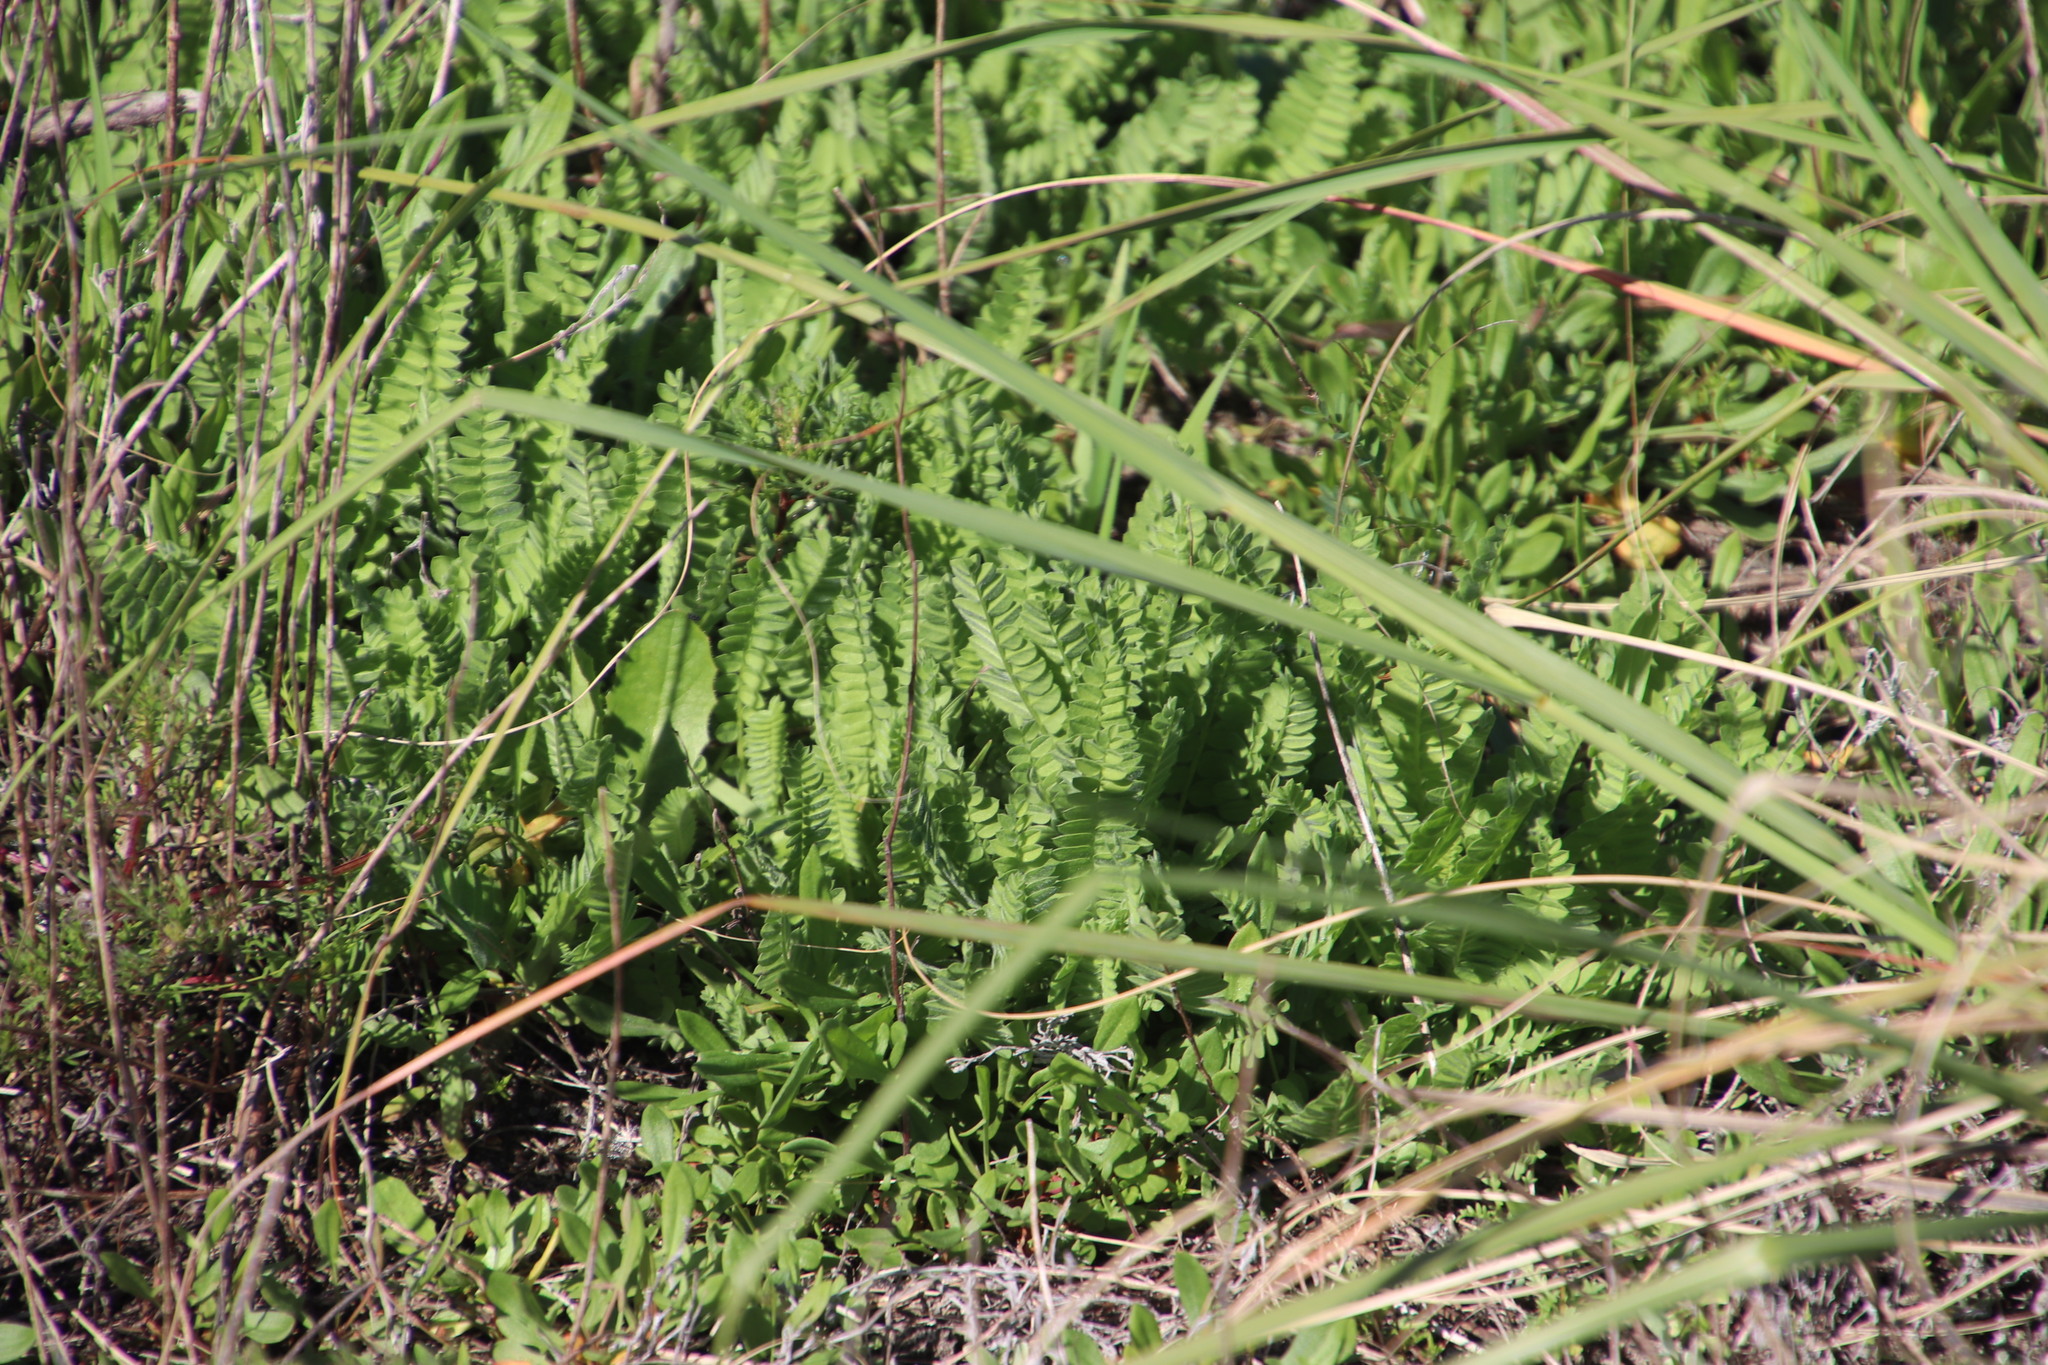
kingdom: Plantae
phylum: Tracheophyta
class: Magnoliopsida
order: Fabales
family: Fabaceae
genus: Ornithopus
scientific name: Ornithopus compressus
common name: Yellow serradella
